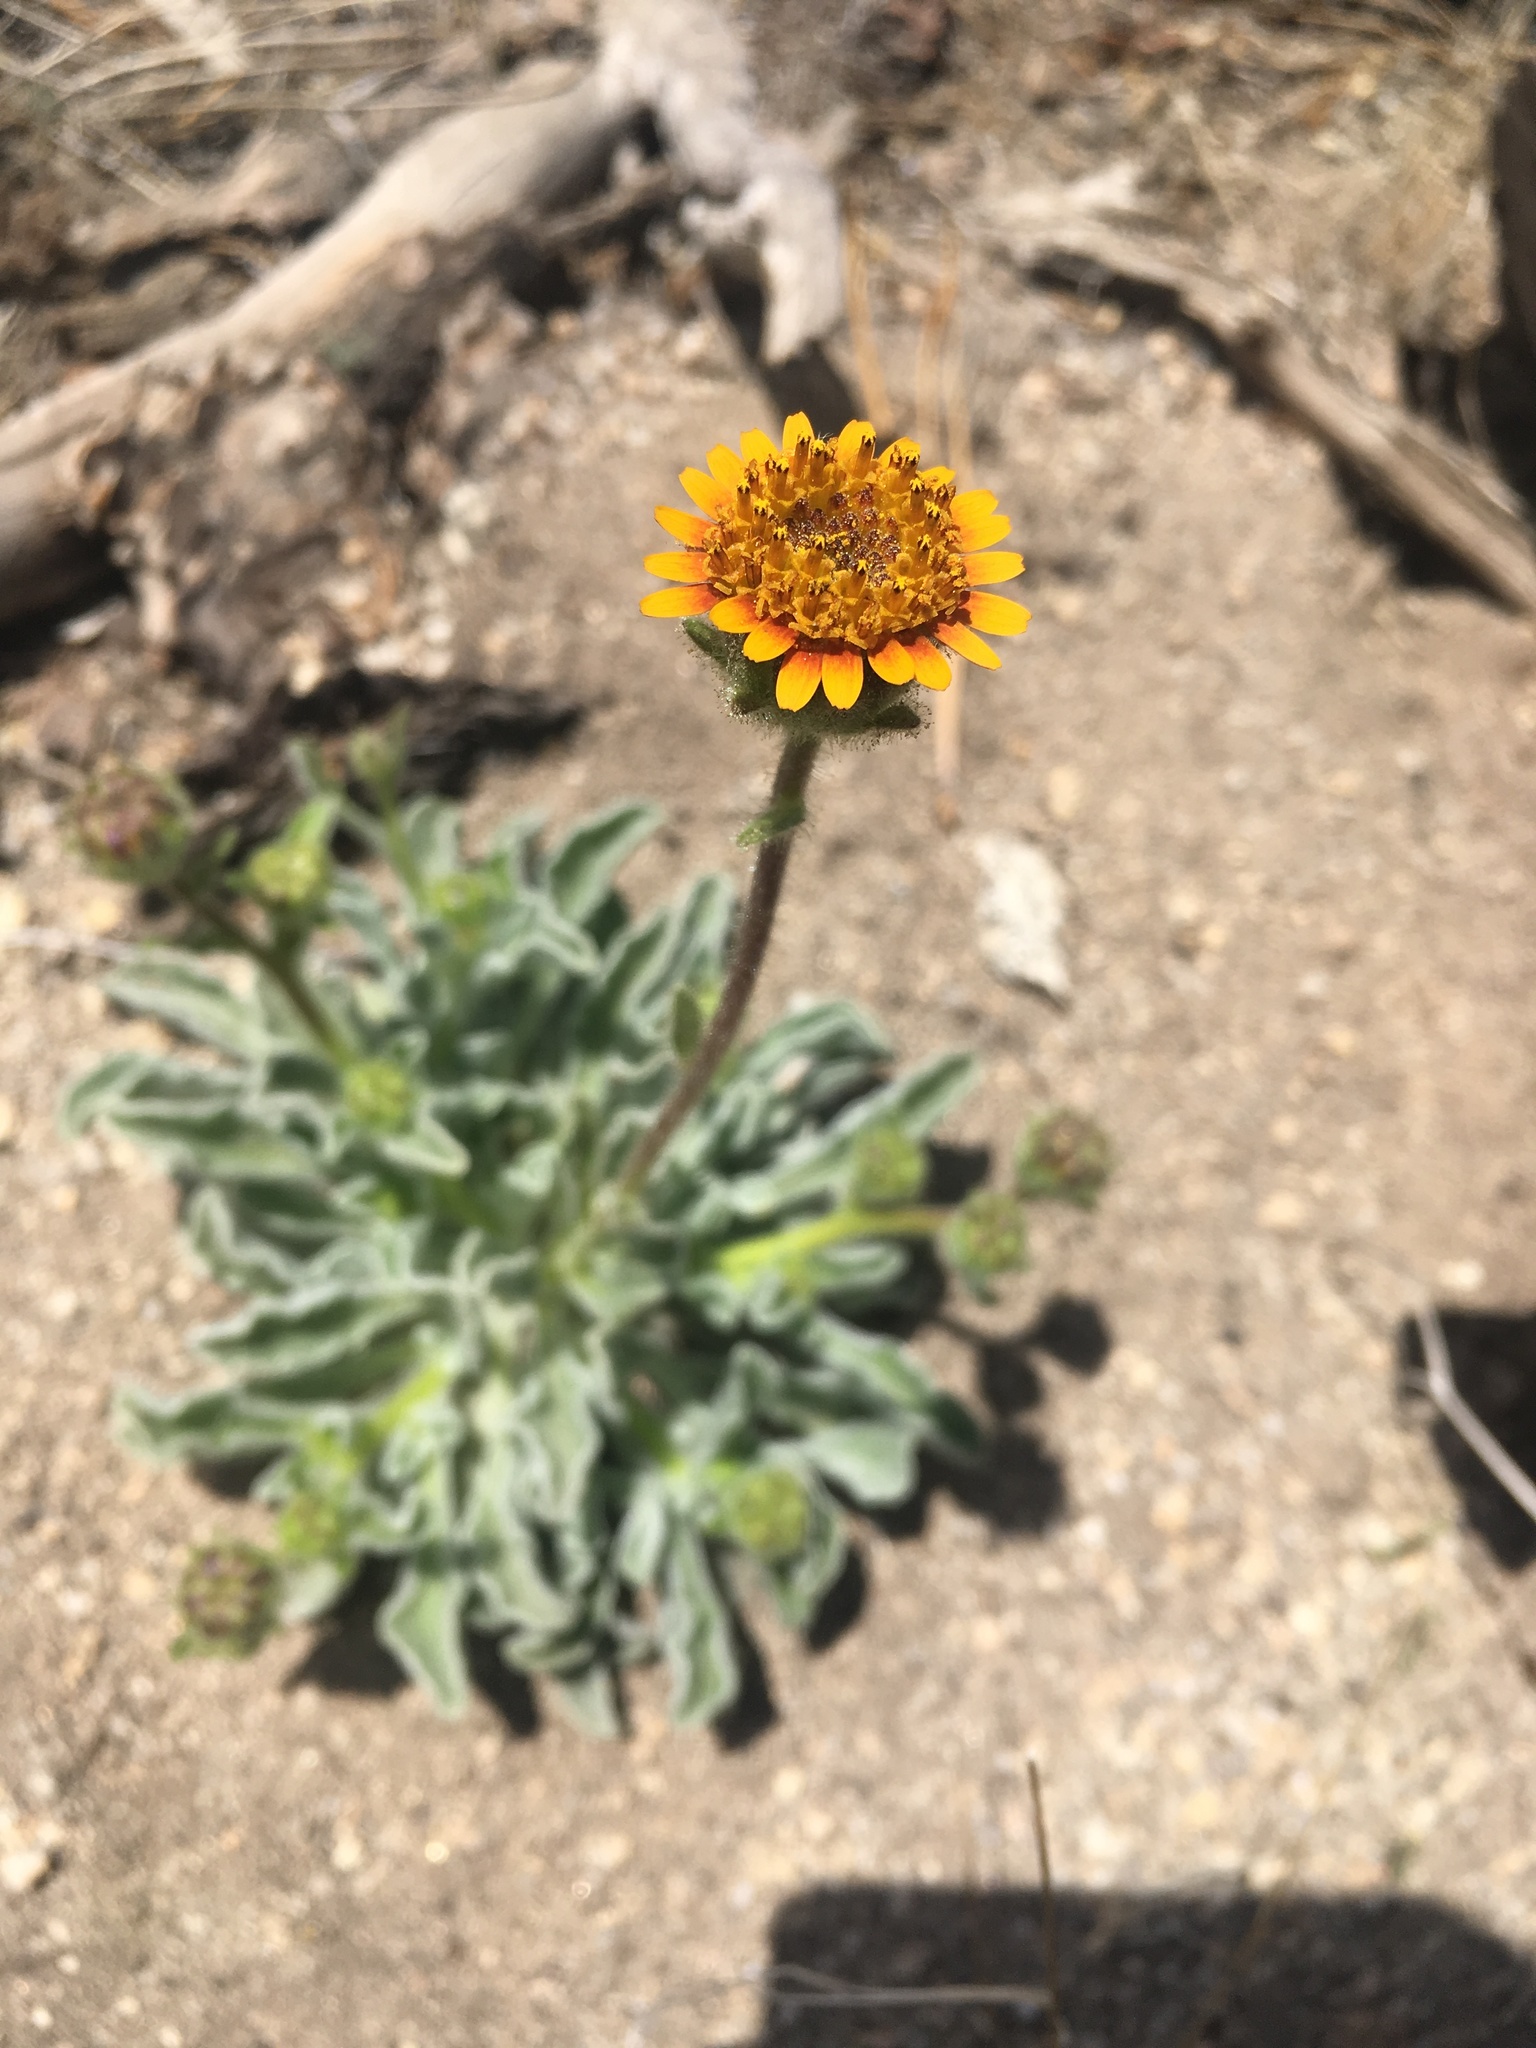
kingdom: Plantae
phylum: Tracheophyta
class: Magnoliopsida
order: Asterales
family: Asteraceae
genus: Hulsea
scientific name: Hulsea vestita
